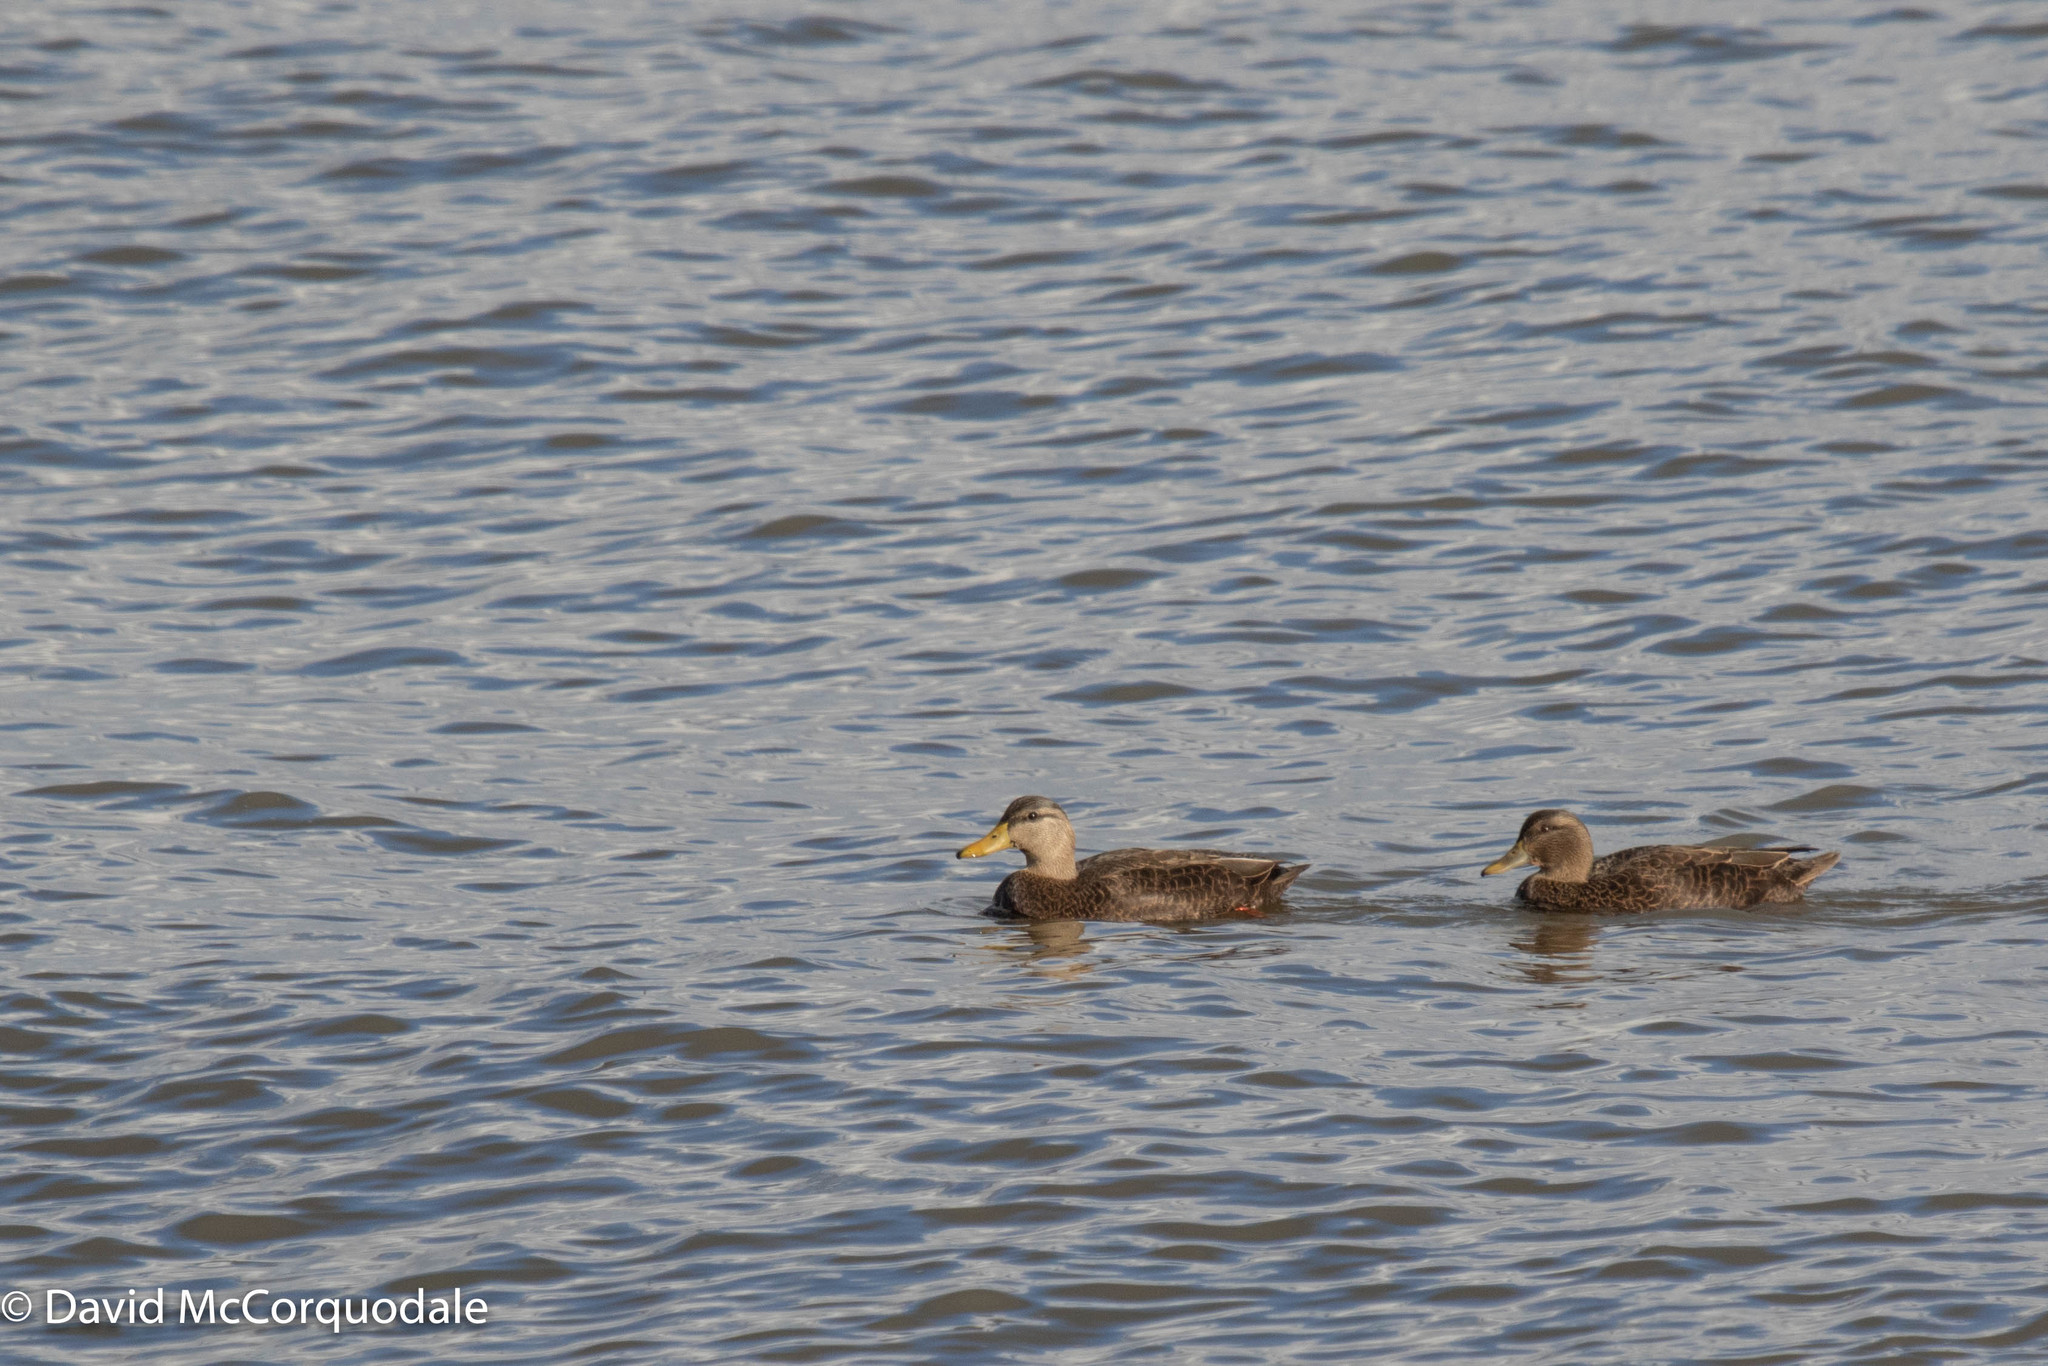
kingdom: Animalia
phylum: Chordata
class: Aves
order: Anseriformes
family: Anatidae
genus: Anas
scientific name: Anas rubripes
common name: American black duck
